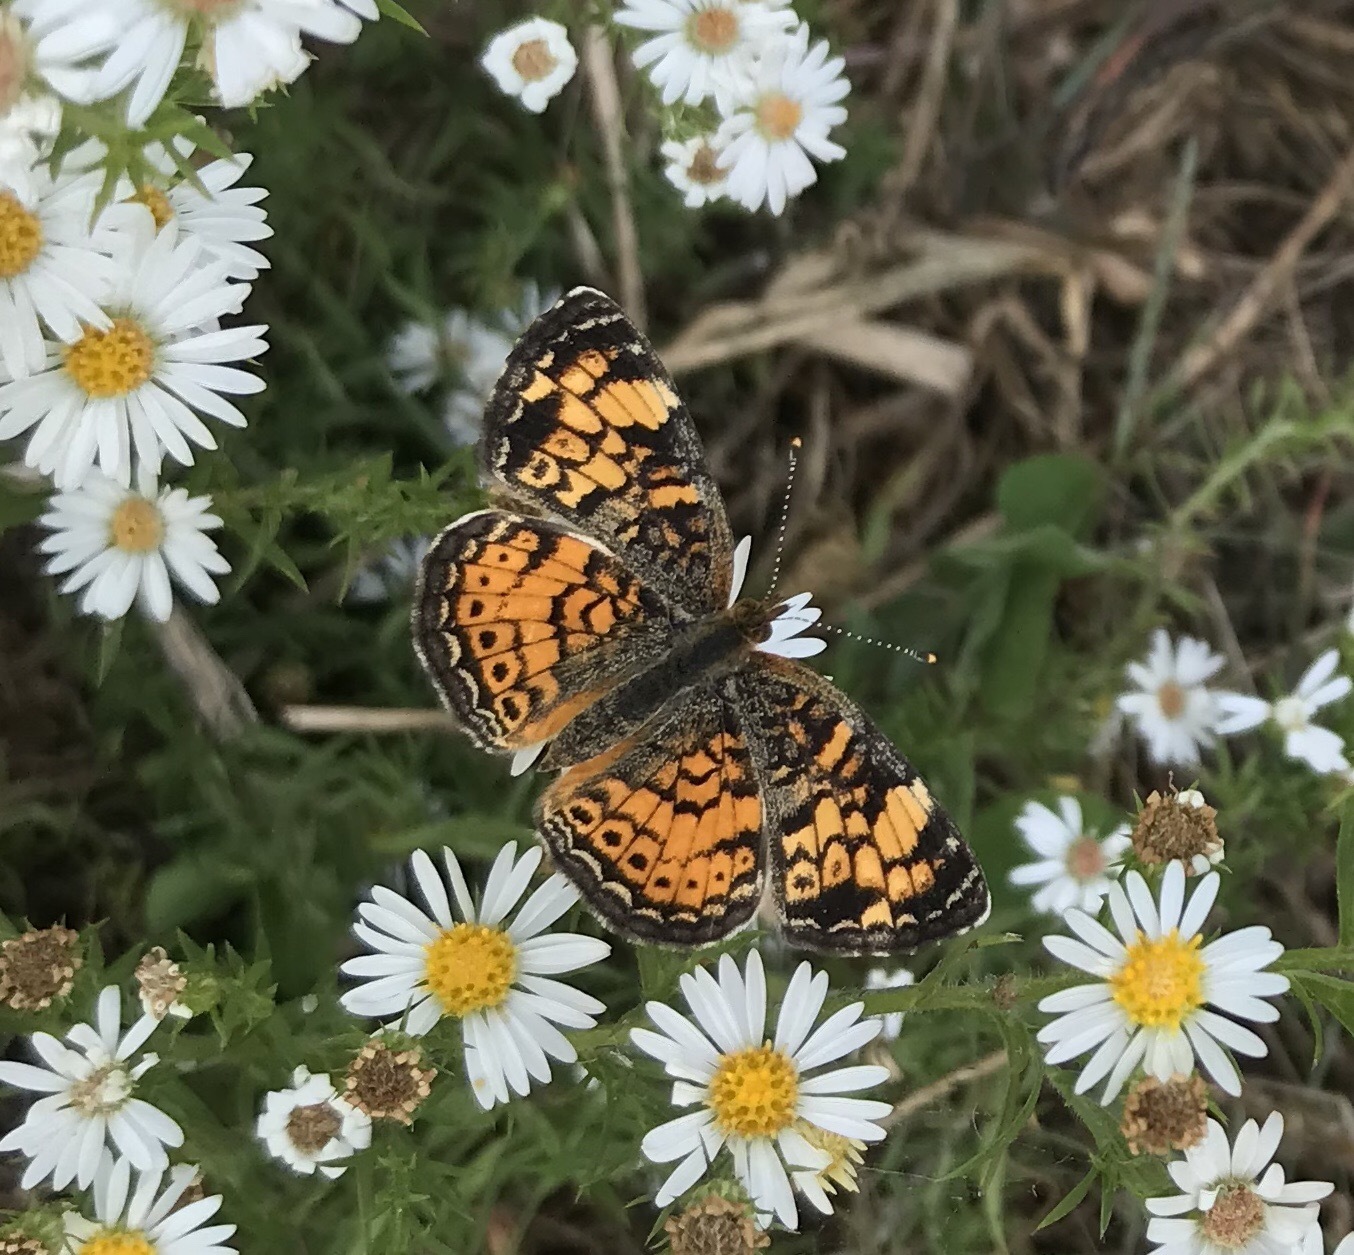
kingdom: Animalia
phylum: Arthropoda
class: Insecta
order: Lepidoptera
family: Nymphalidae
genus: Phyciodes
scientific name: Phyciodes tharos
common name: Pearl crescent
